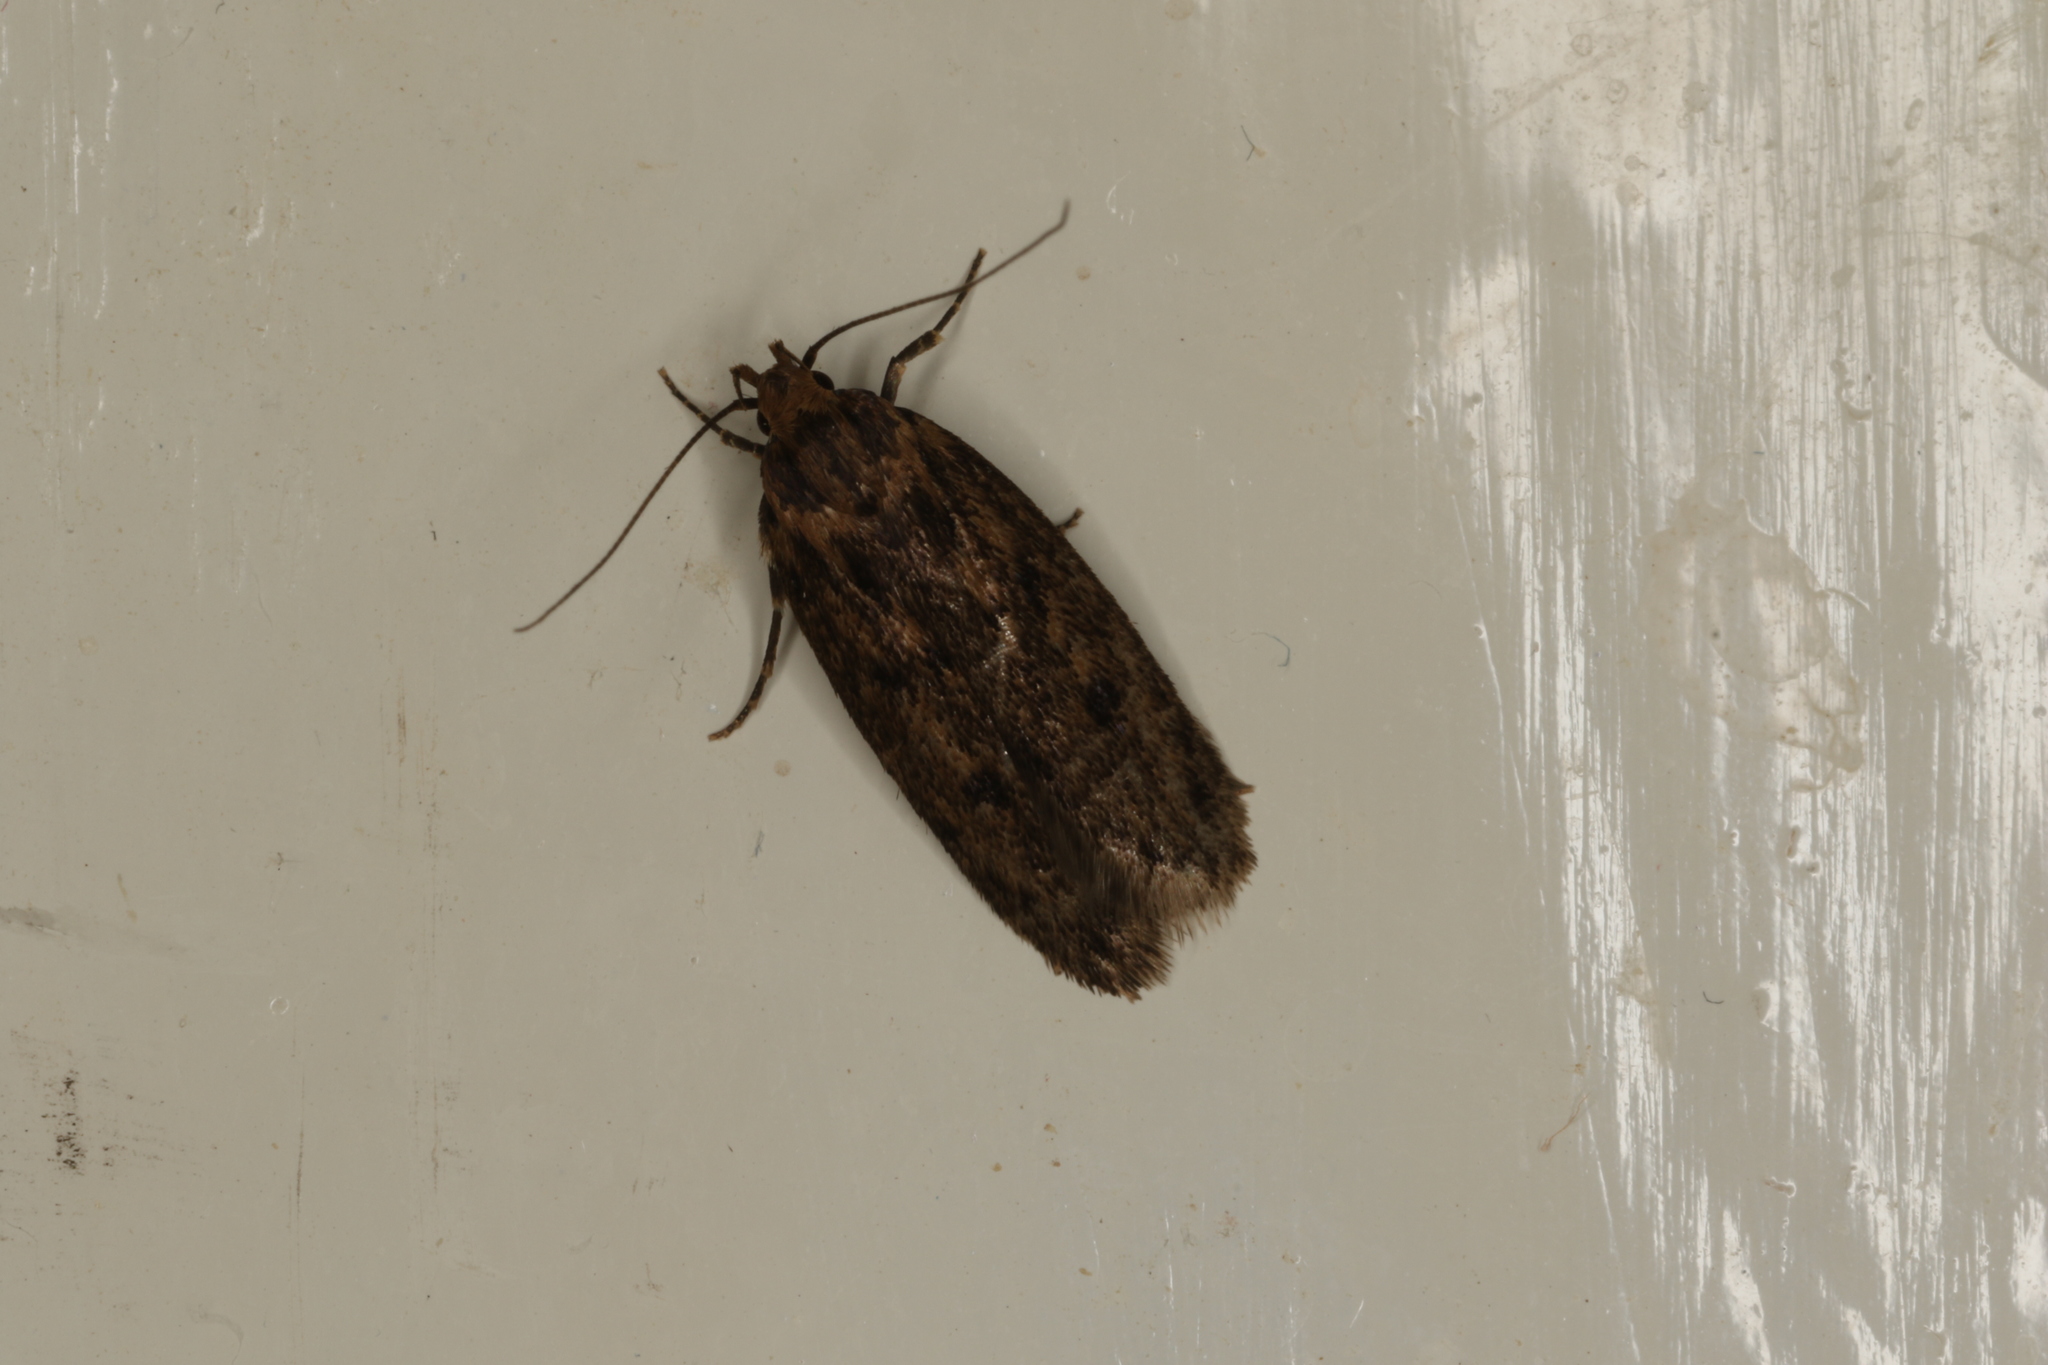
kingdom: Animalia
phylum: Arthropoda
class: Insecta
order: Lepidoptera
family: Oecophoridae
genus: Hofmannophila
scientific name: Hofmannophila pseudospretella
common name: Brown house moth
